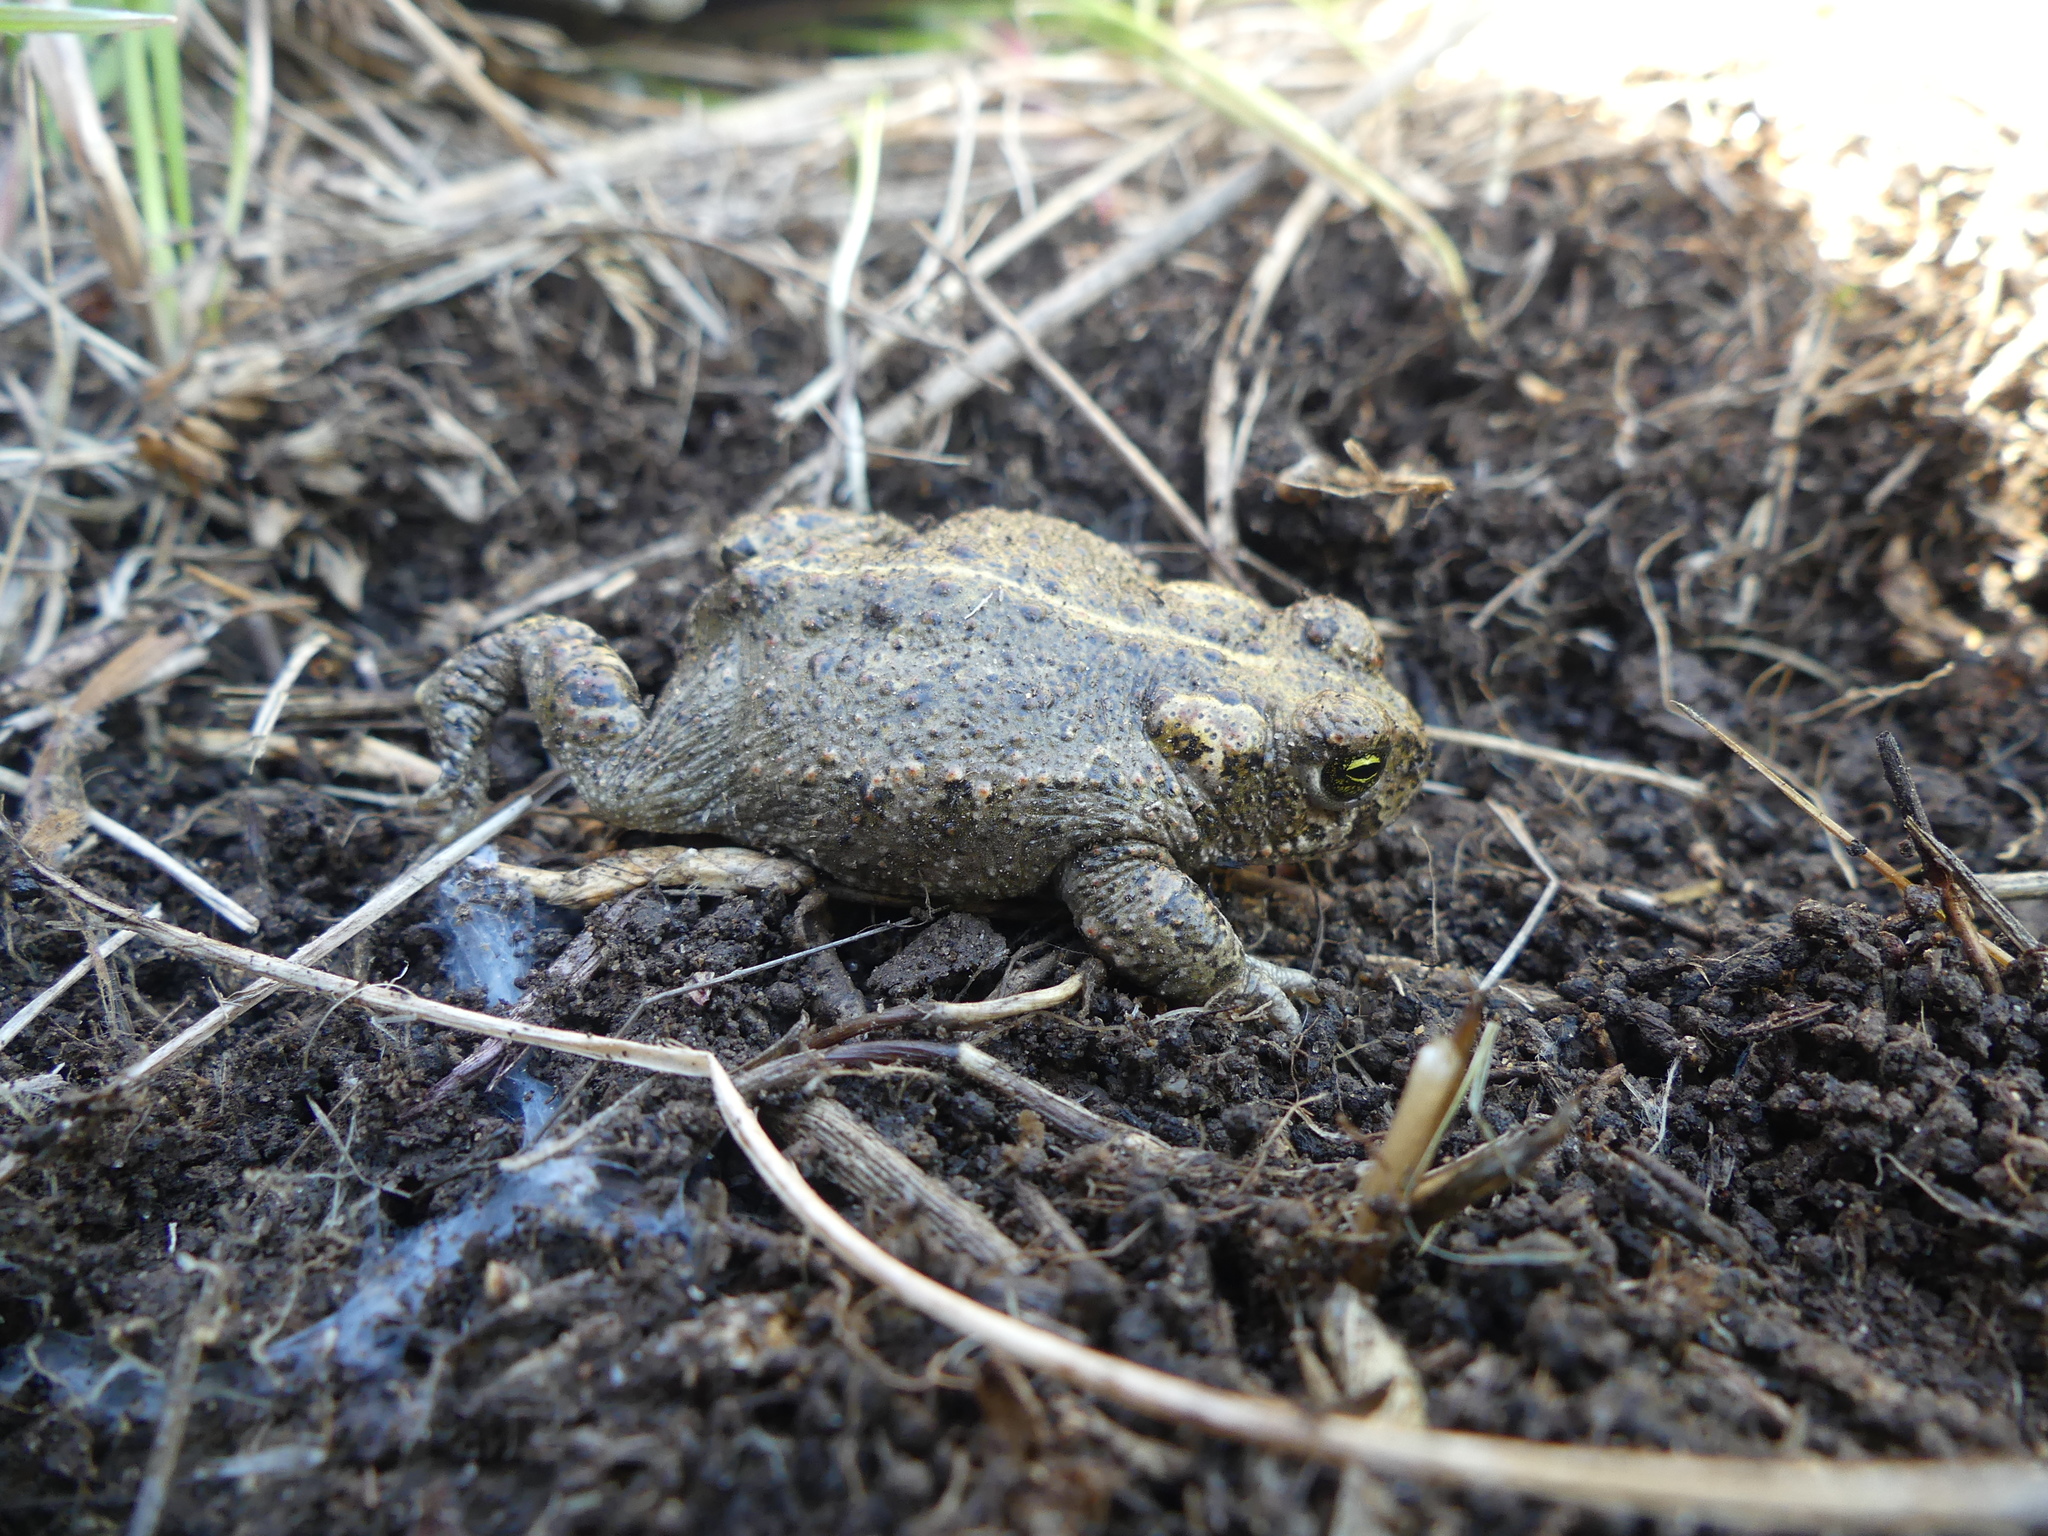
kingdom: Animalia
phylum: Chordata
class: Amphibia
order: Anura
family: Bufonidae
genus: Epidalea
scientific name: Epidalea calamita
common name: Natterjack toad
